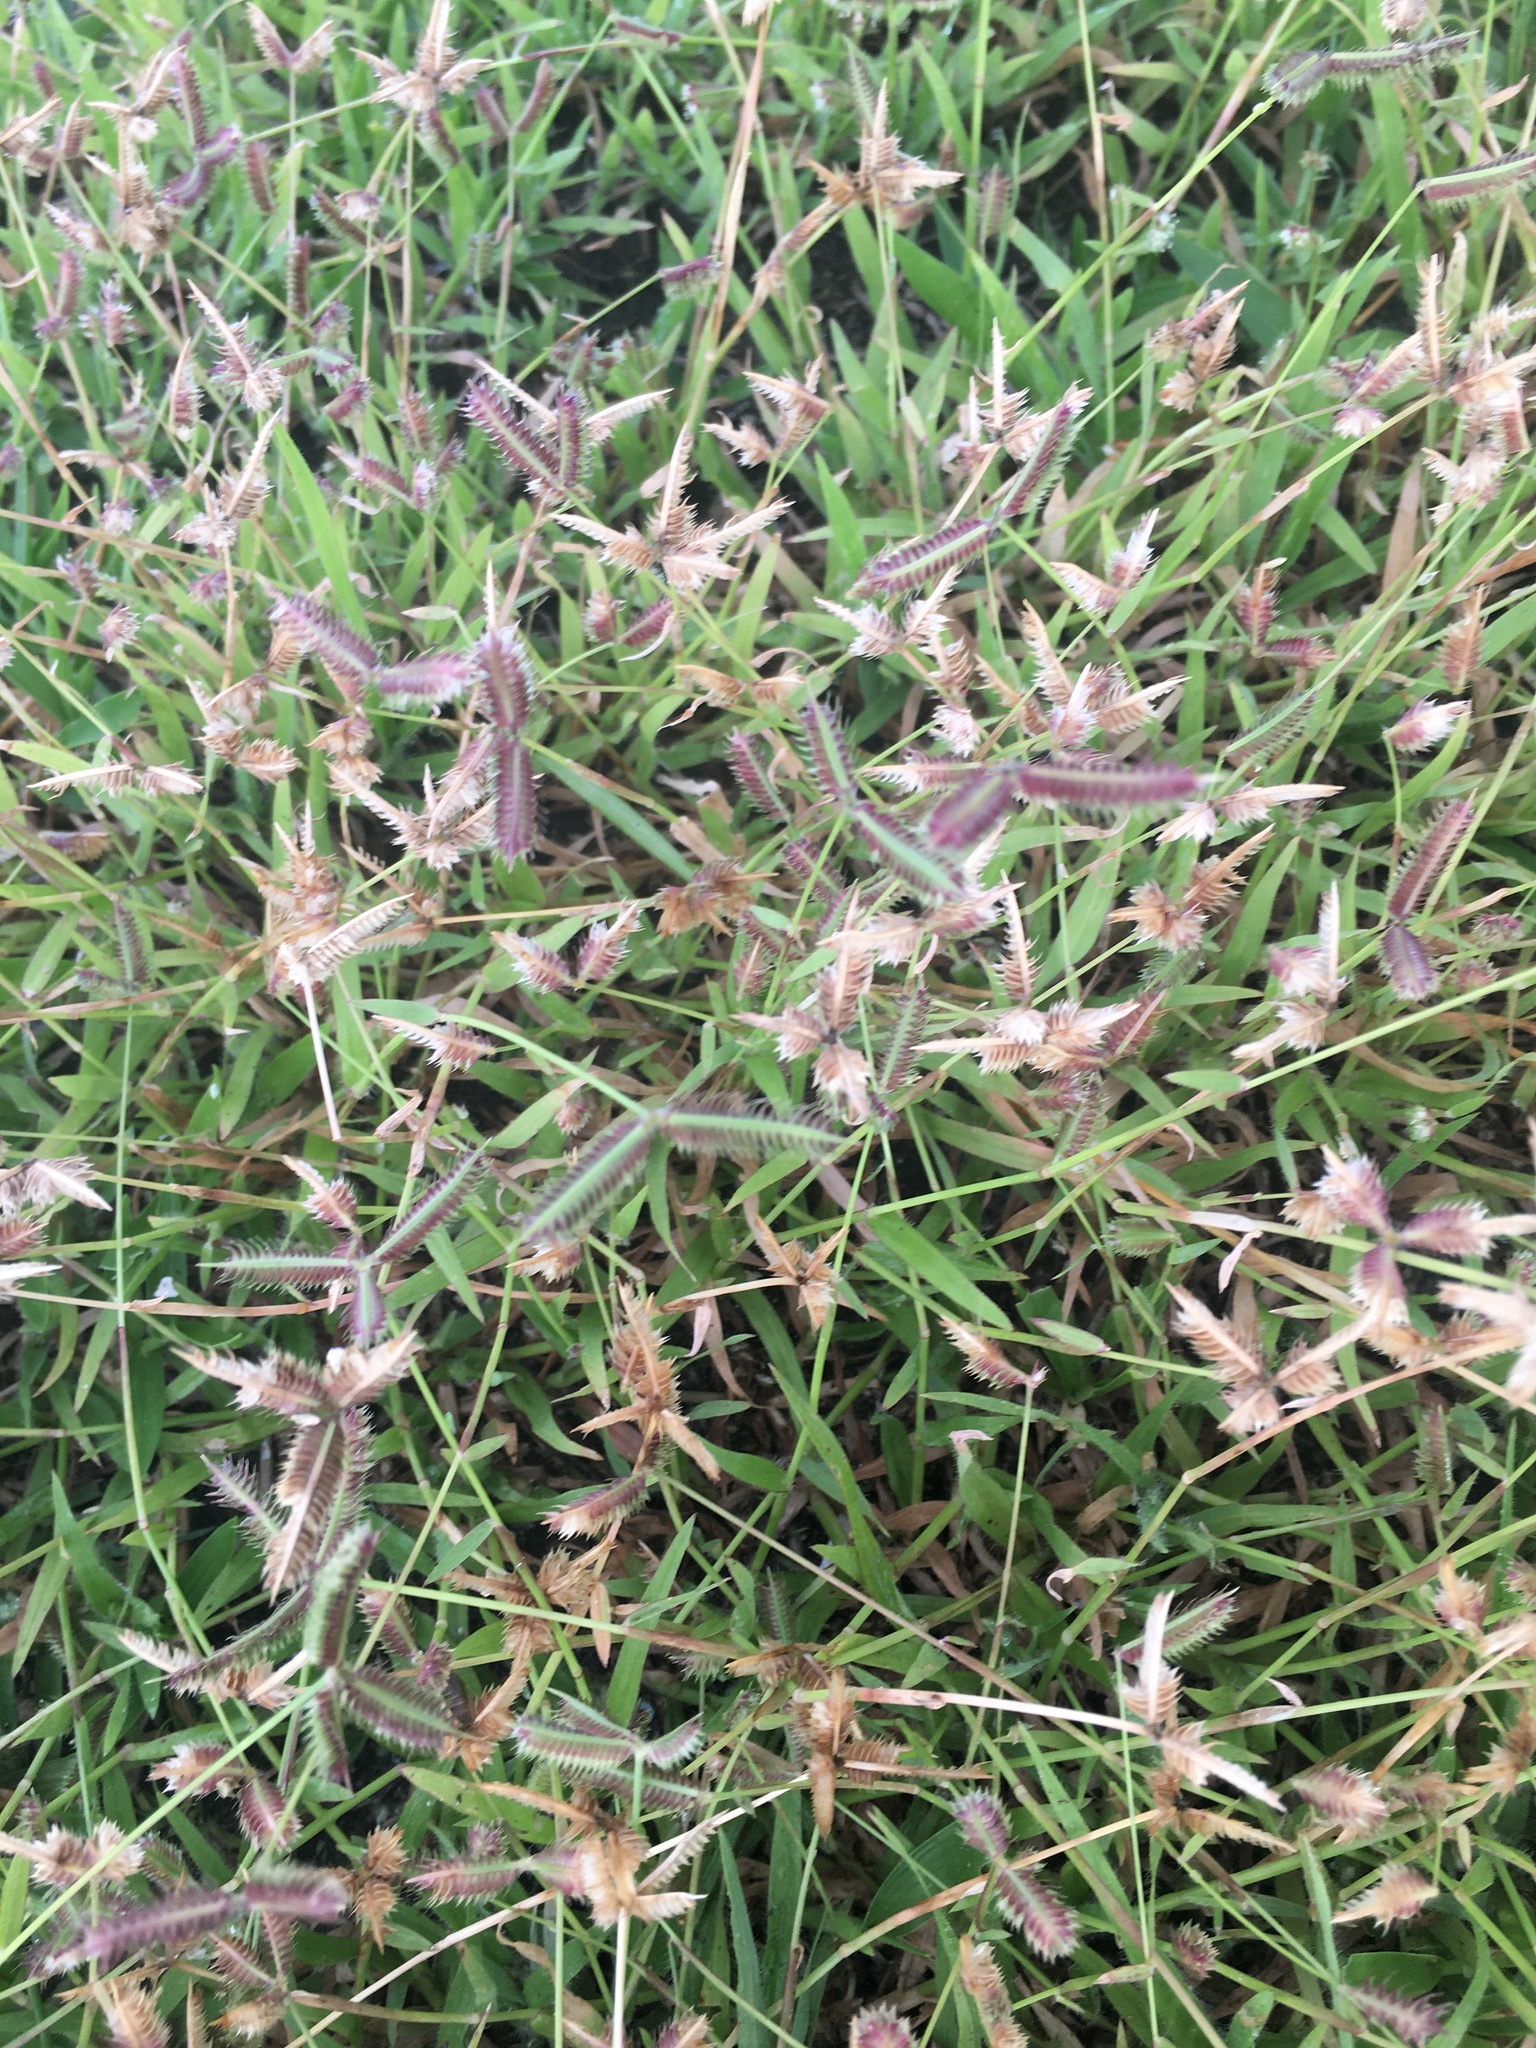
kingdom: Plantae
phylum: Tracheophyta
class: Liliopsida
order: Poales
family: Poaceae
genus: Dactyloctenium
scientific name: Dactyloctenium aegyptium
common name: Egyptian grass
